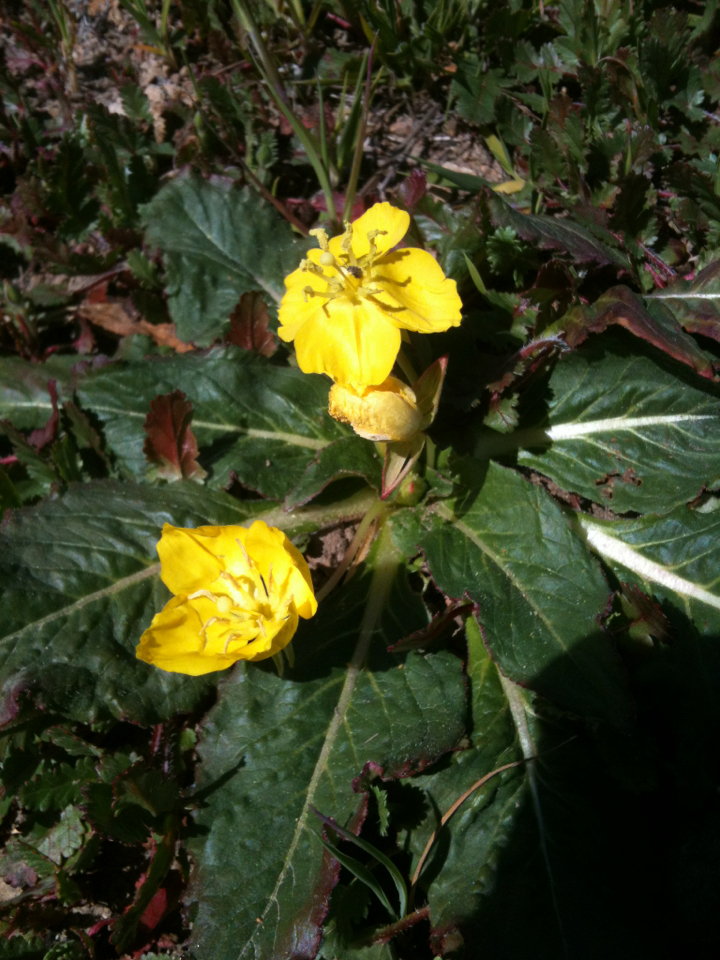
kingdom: Plantae
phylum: Tracheophyta
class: Magnoliopsida
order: Myrtales
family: Onagraceae
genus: Taraxia
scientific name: Taraxia ovata
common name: Goldeneggs
